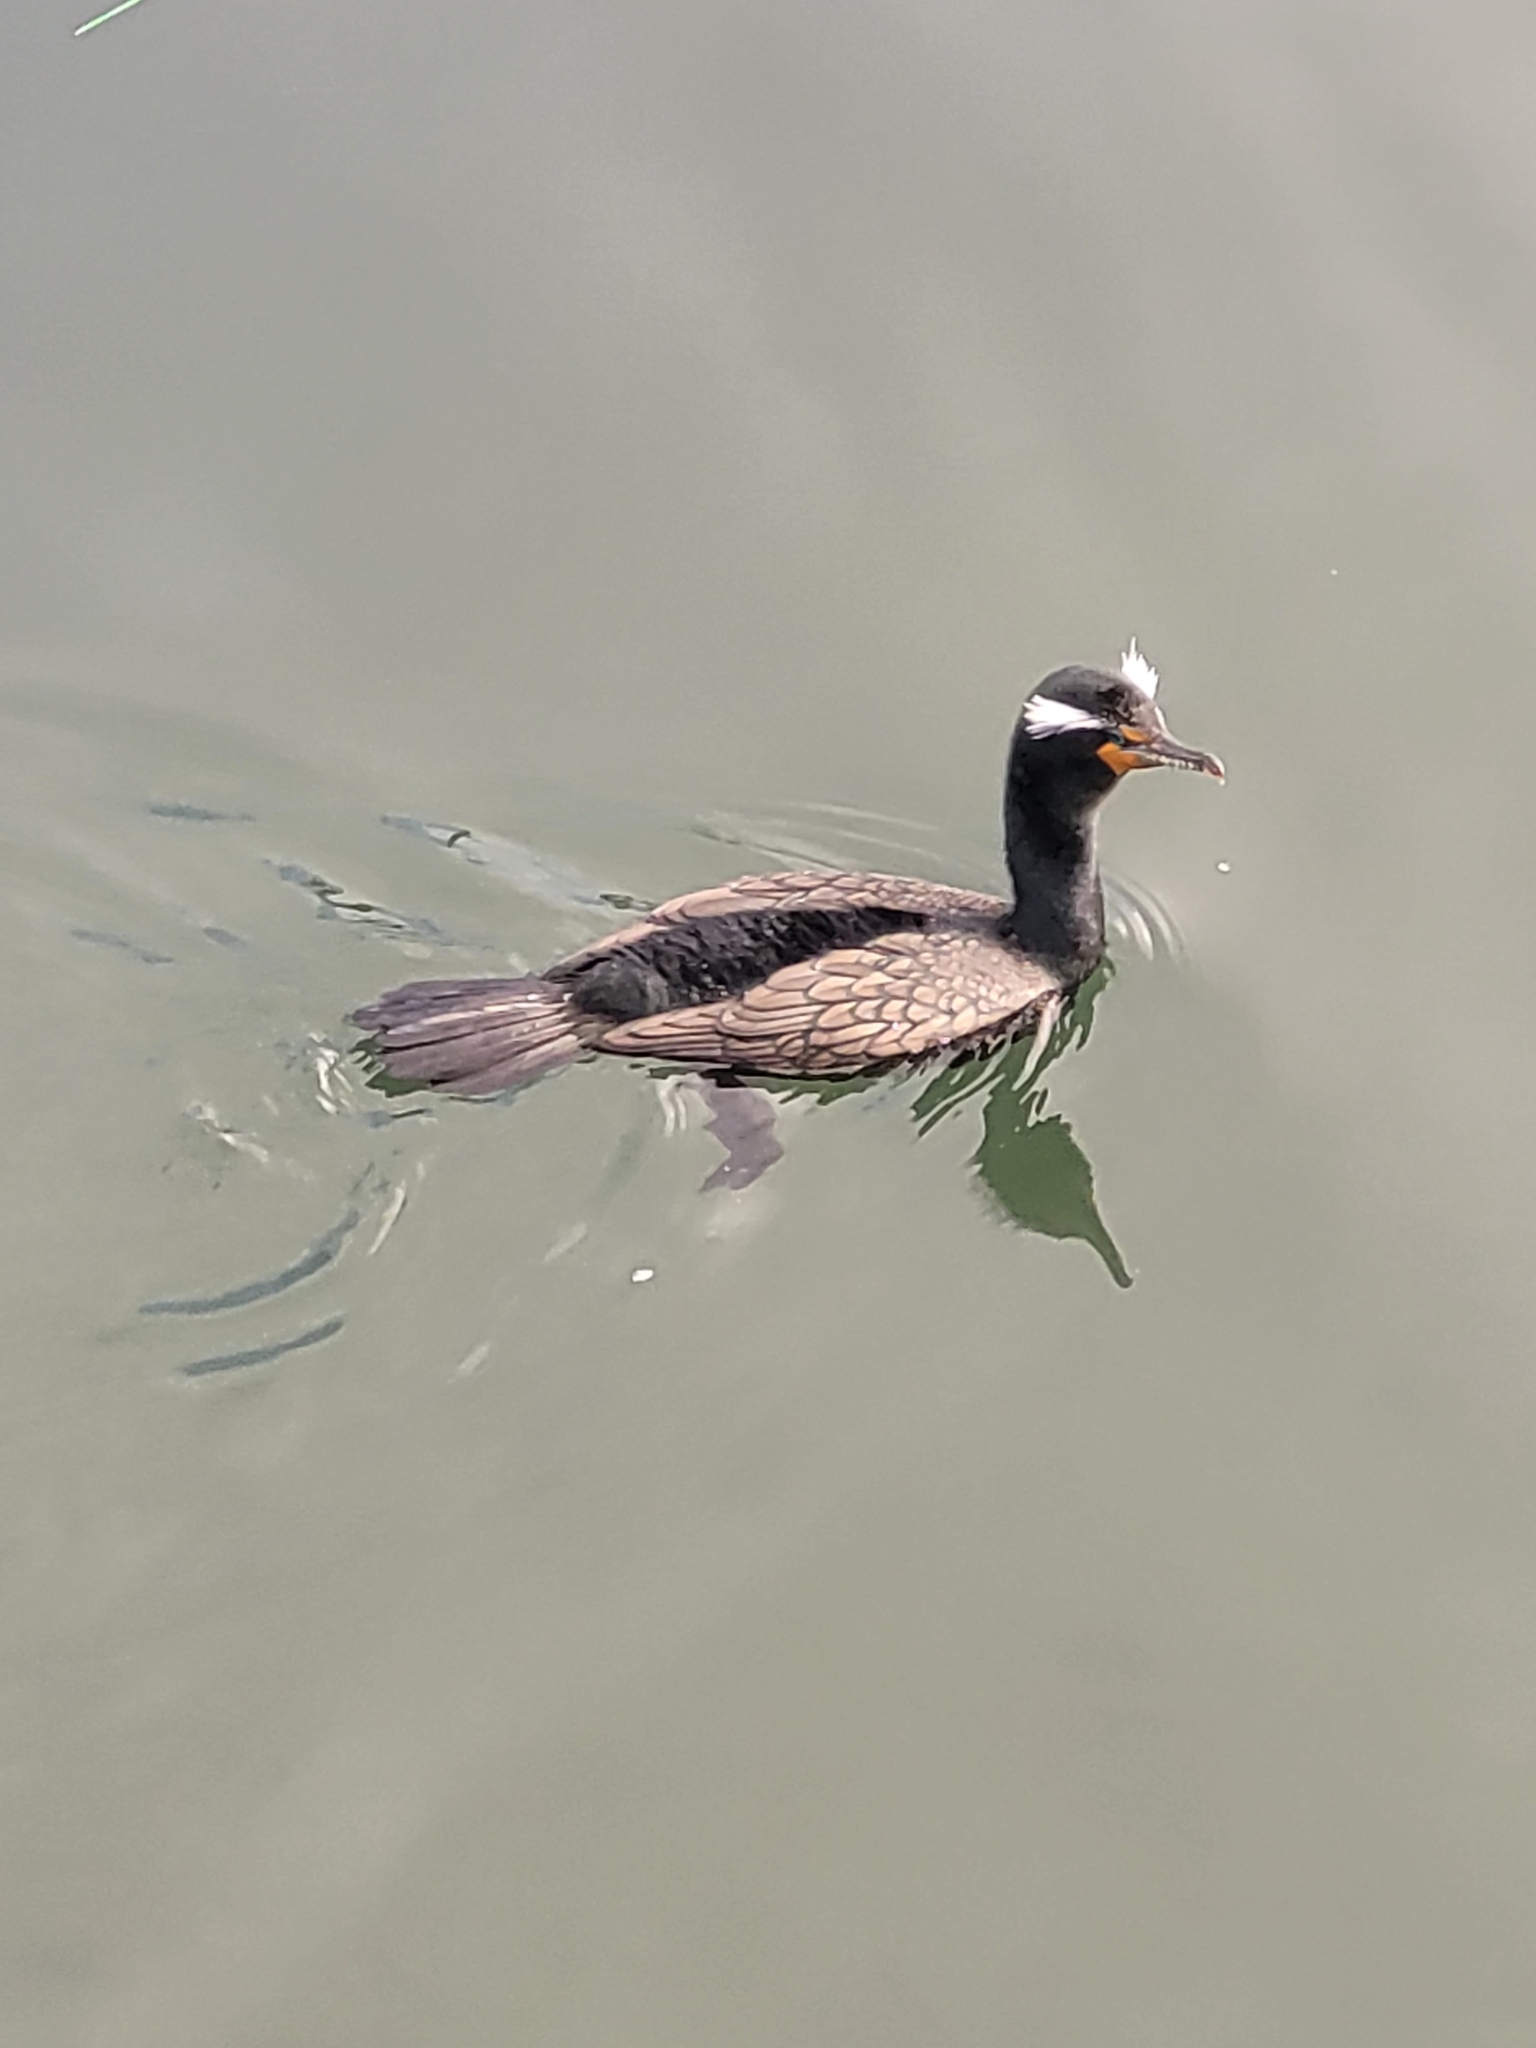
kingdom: Animalia
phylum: Chordata
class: Aves
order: Suliformes
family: Phalacrocoracidae
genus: Phalacrocorax
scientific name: Phalacrocorax auritus
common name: Double-crested cormorant
